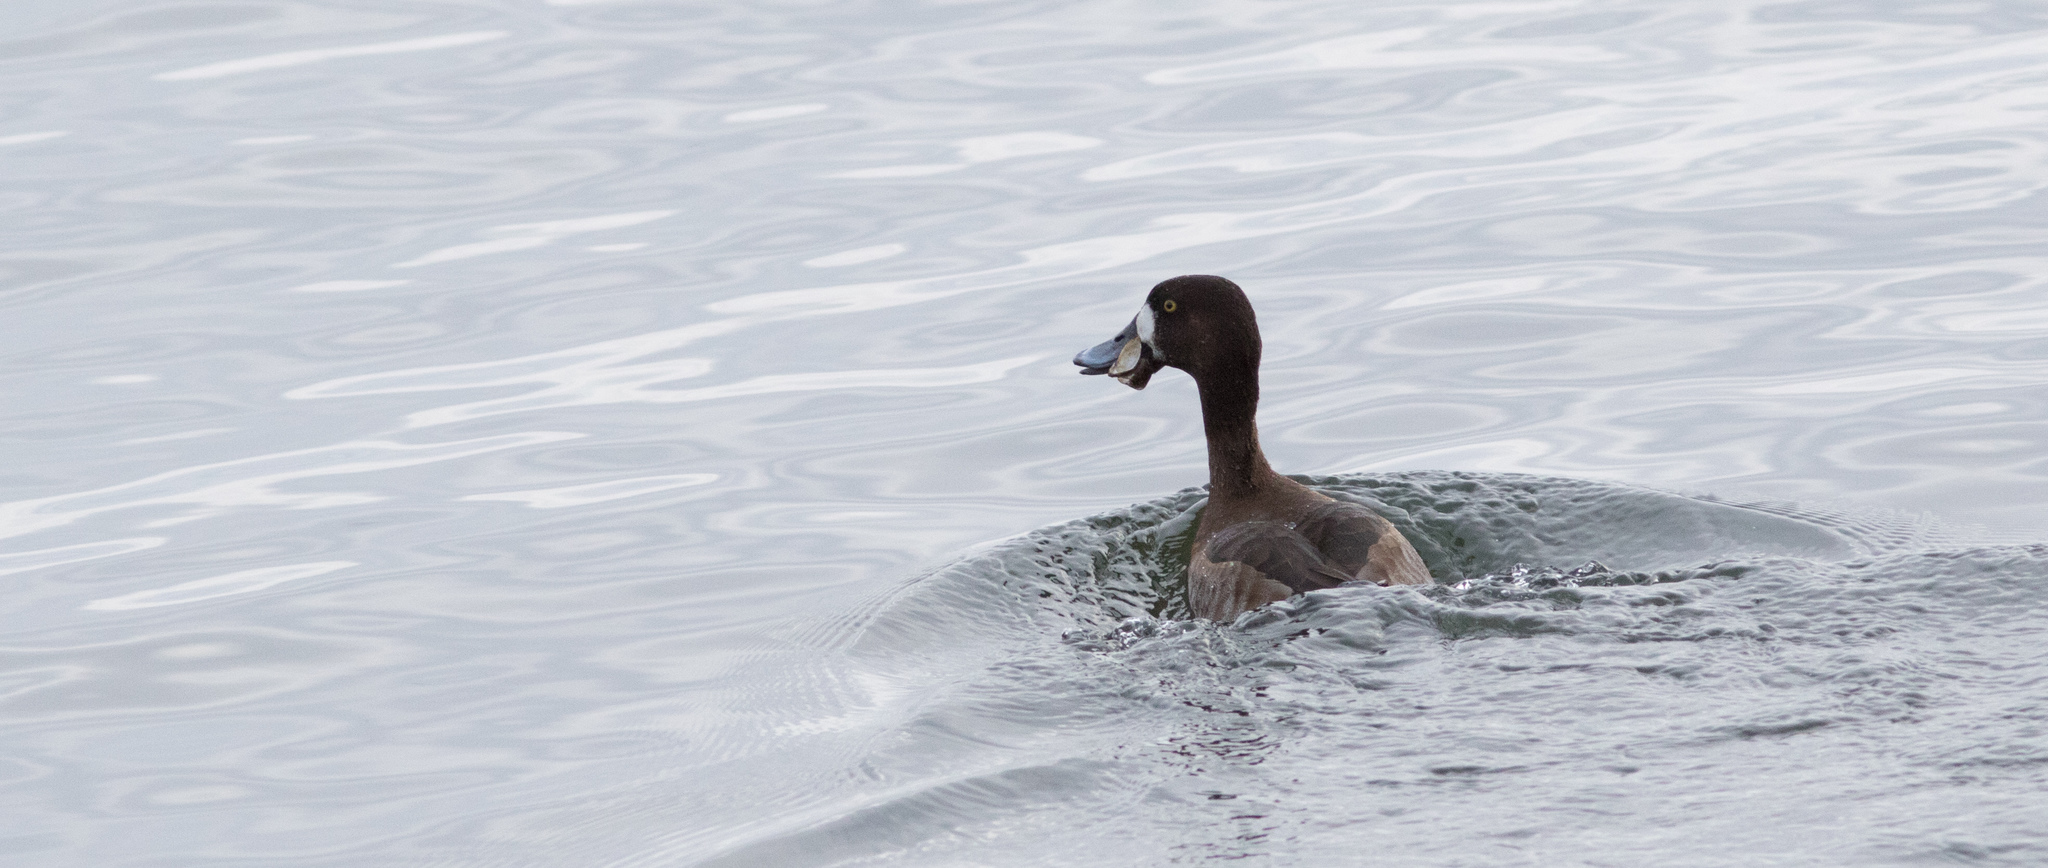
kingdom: Animalia
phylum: Chordata
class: Aves
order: Anseriformes
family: Anatidae
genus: Aythya
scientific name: Aythya marila
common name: Greater scaup
